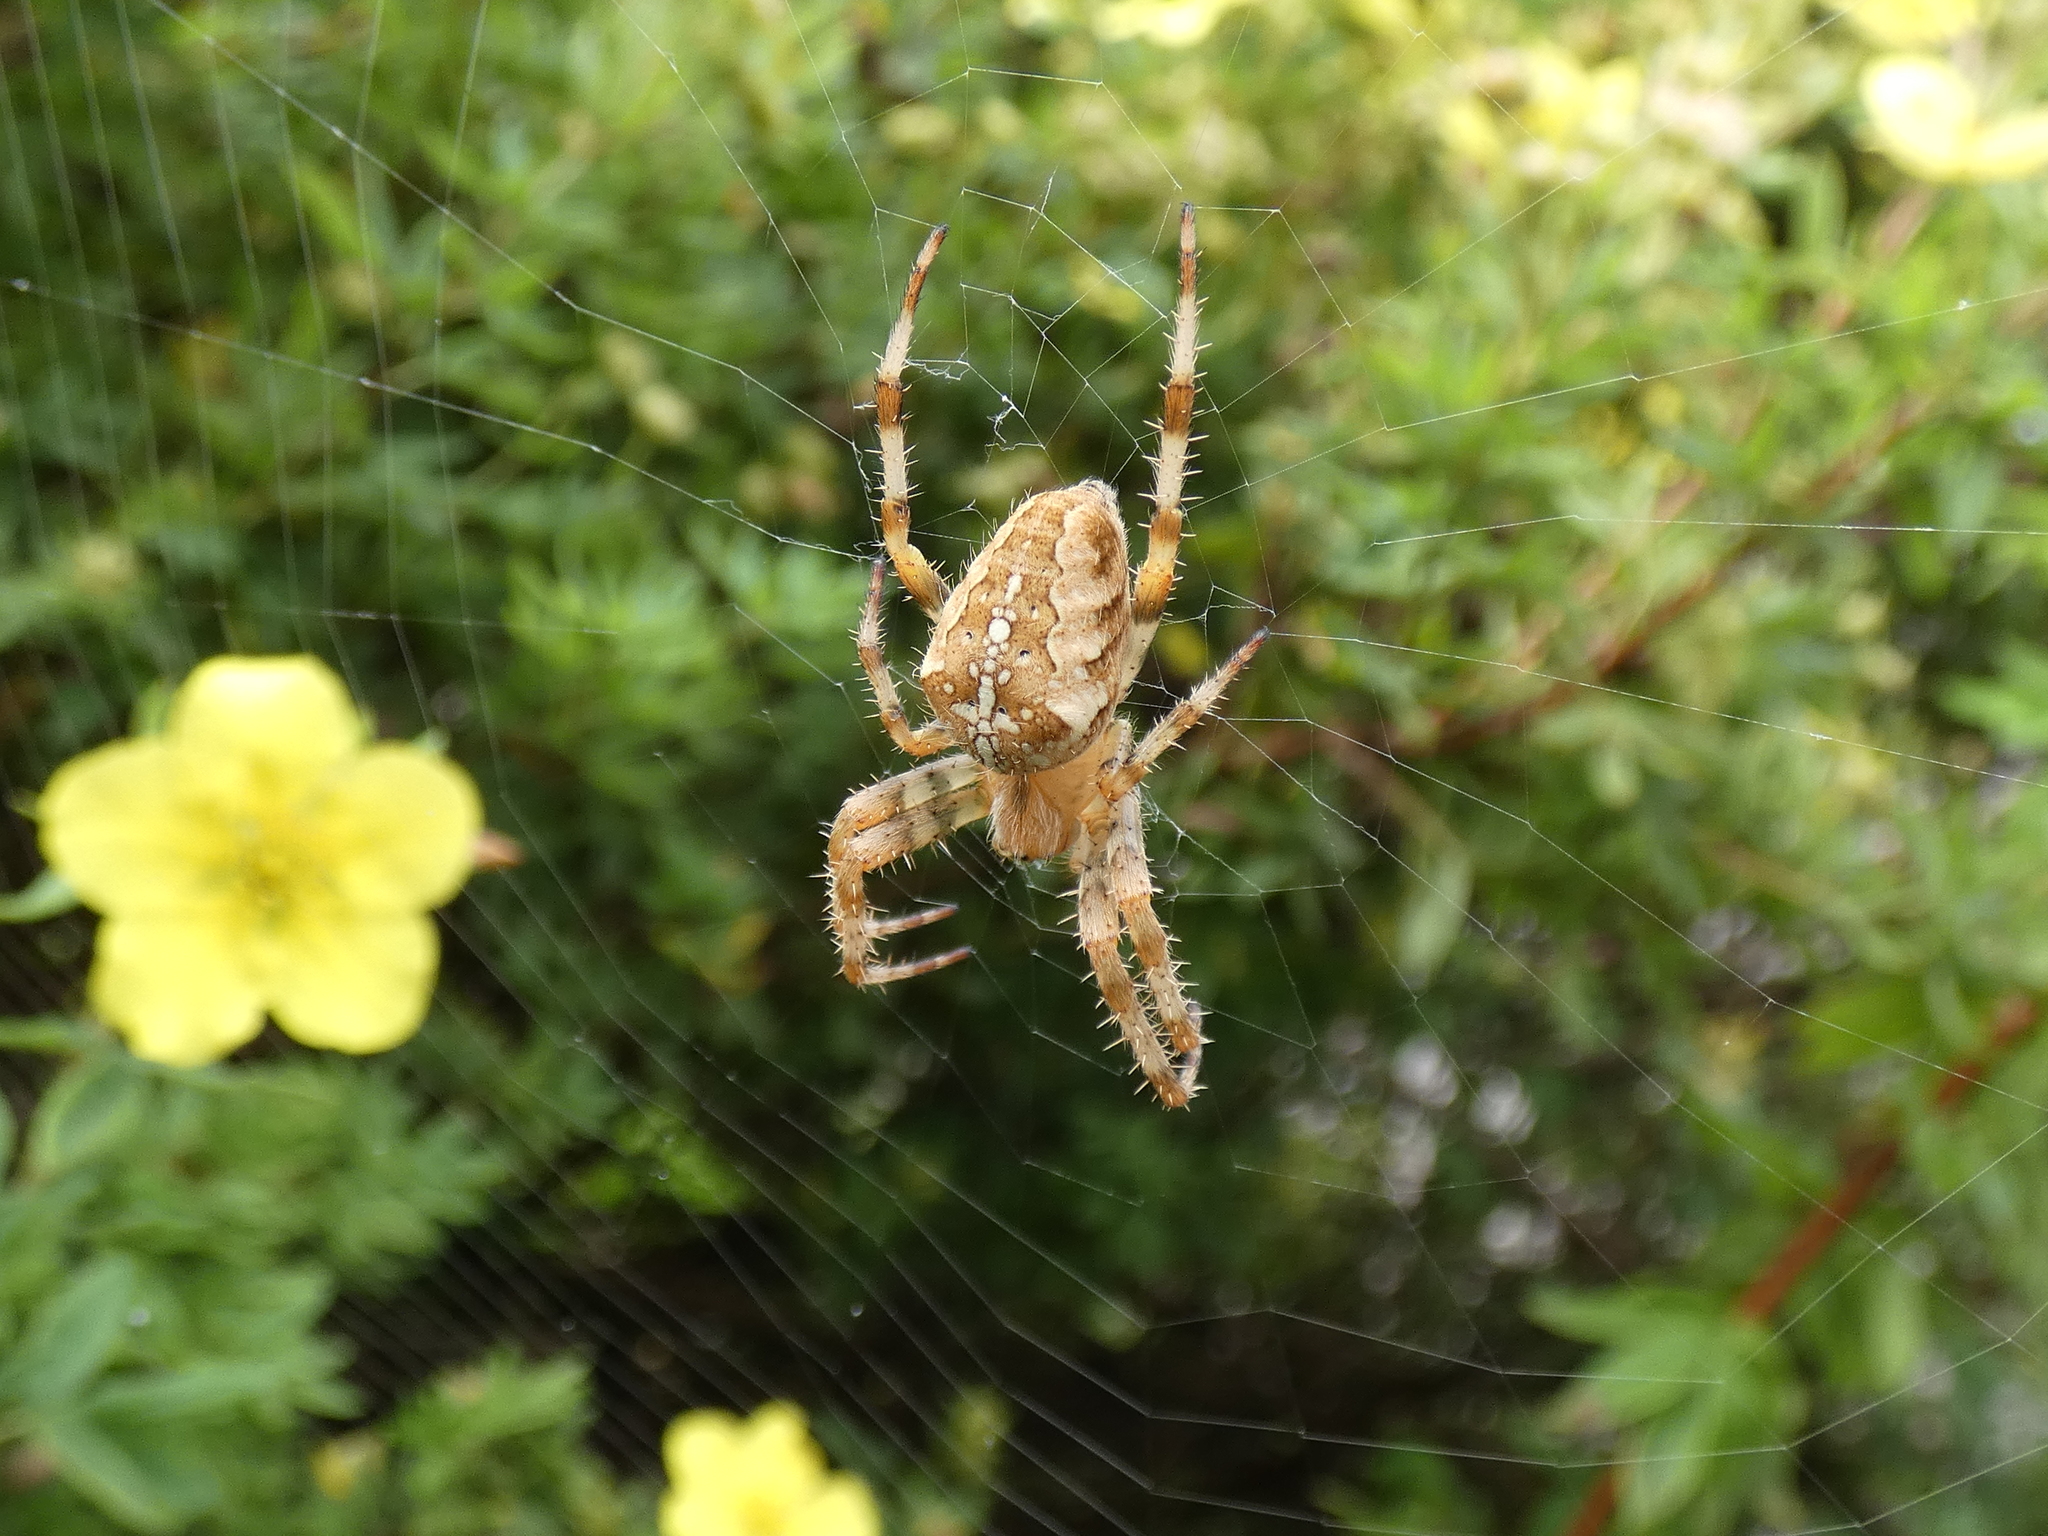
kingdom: Animalia
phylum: Arthropoda
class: Arachnida
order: Araneae
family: Araneidae
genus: Araneus
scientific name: Araneus diadematus
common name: Cross orbweaver
